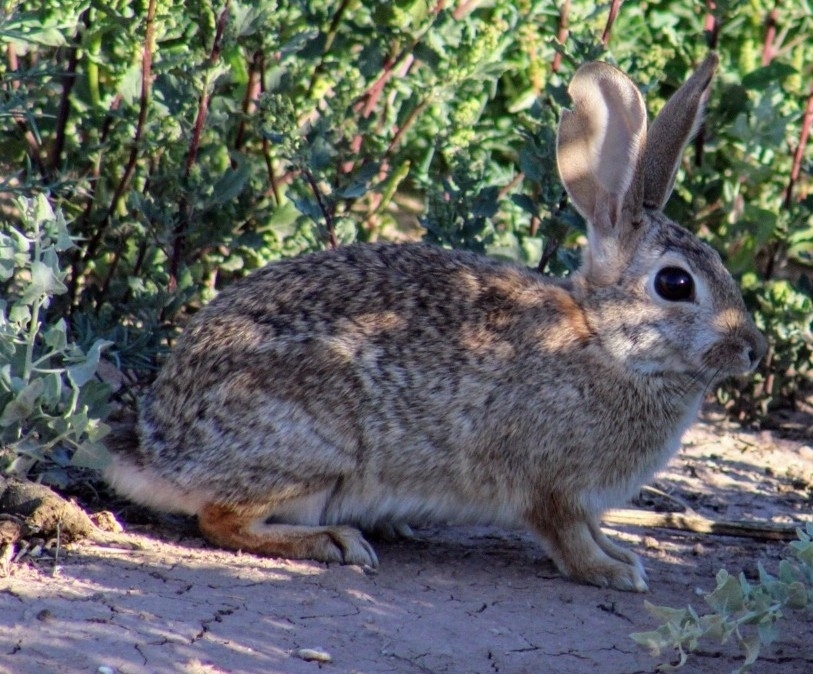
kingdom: Animalia
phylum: Chordata
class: Mammalia
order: Lagomorpha
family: Leporidae
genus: Sylvilagus
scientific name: Sylvilagus audubonii
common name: Desert cottontail
